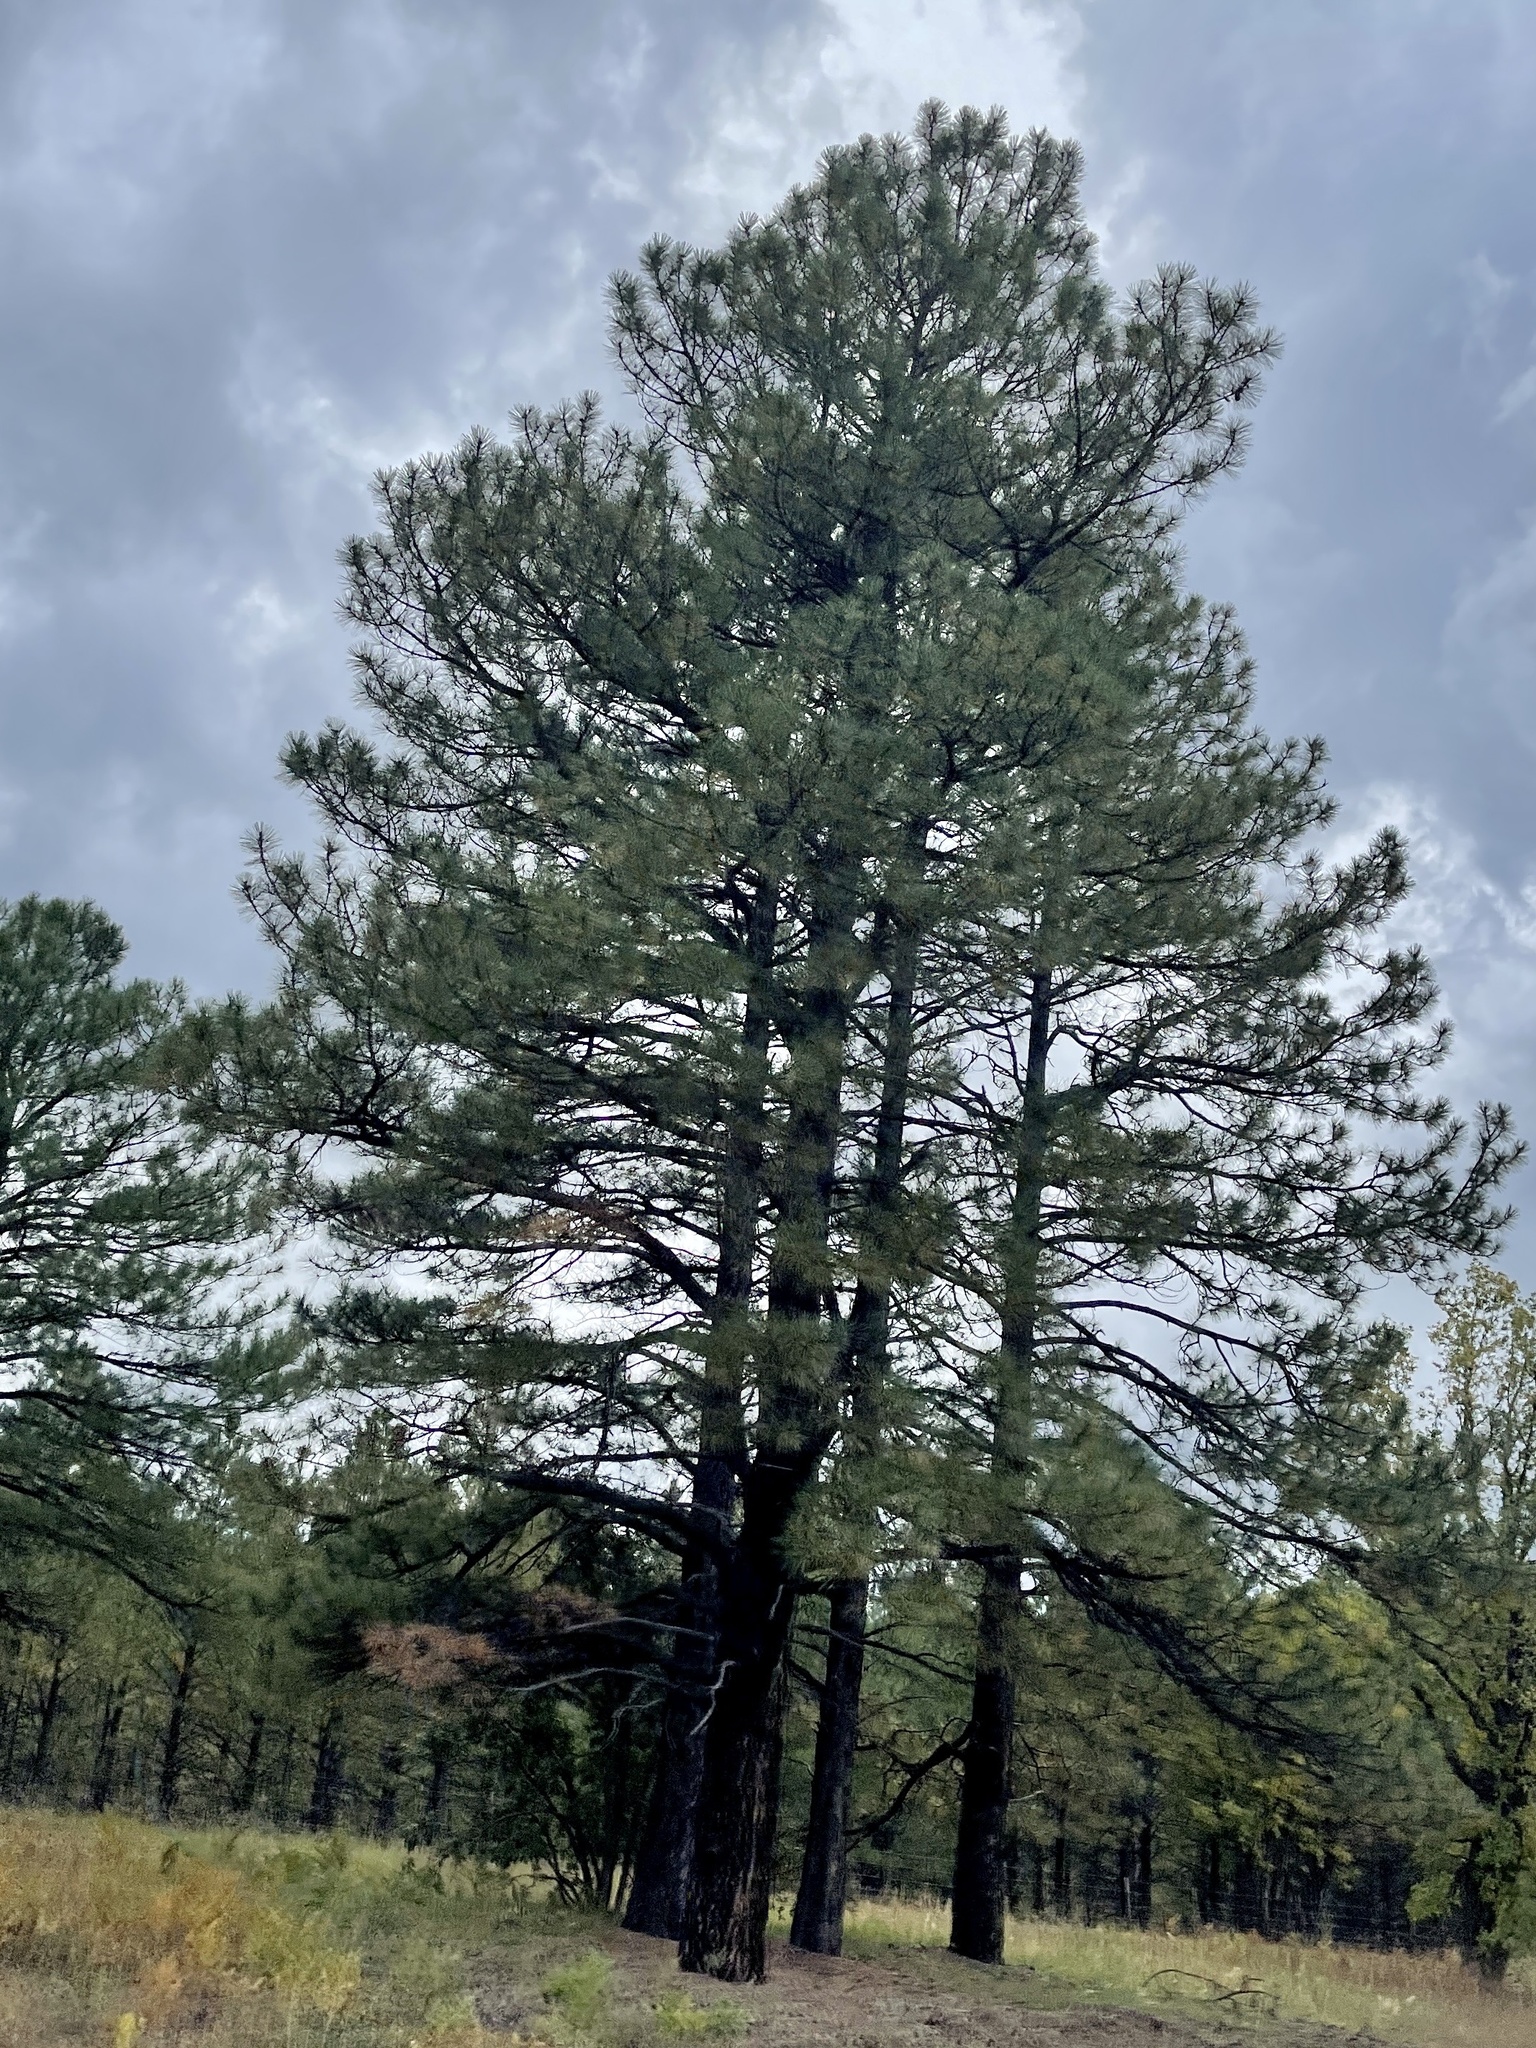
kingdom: Plantae
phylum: Tracheophyta
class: Pinopsida
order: Pinales
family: Pinaceae
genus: Pinus
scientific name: Pinus ponderosa
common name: Western yellow-pine
